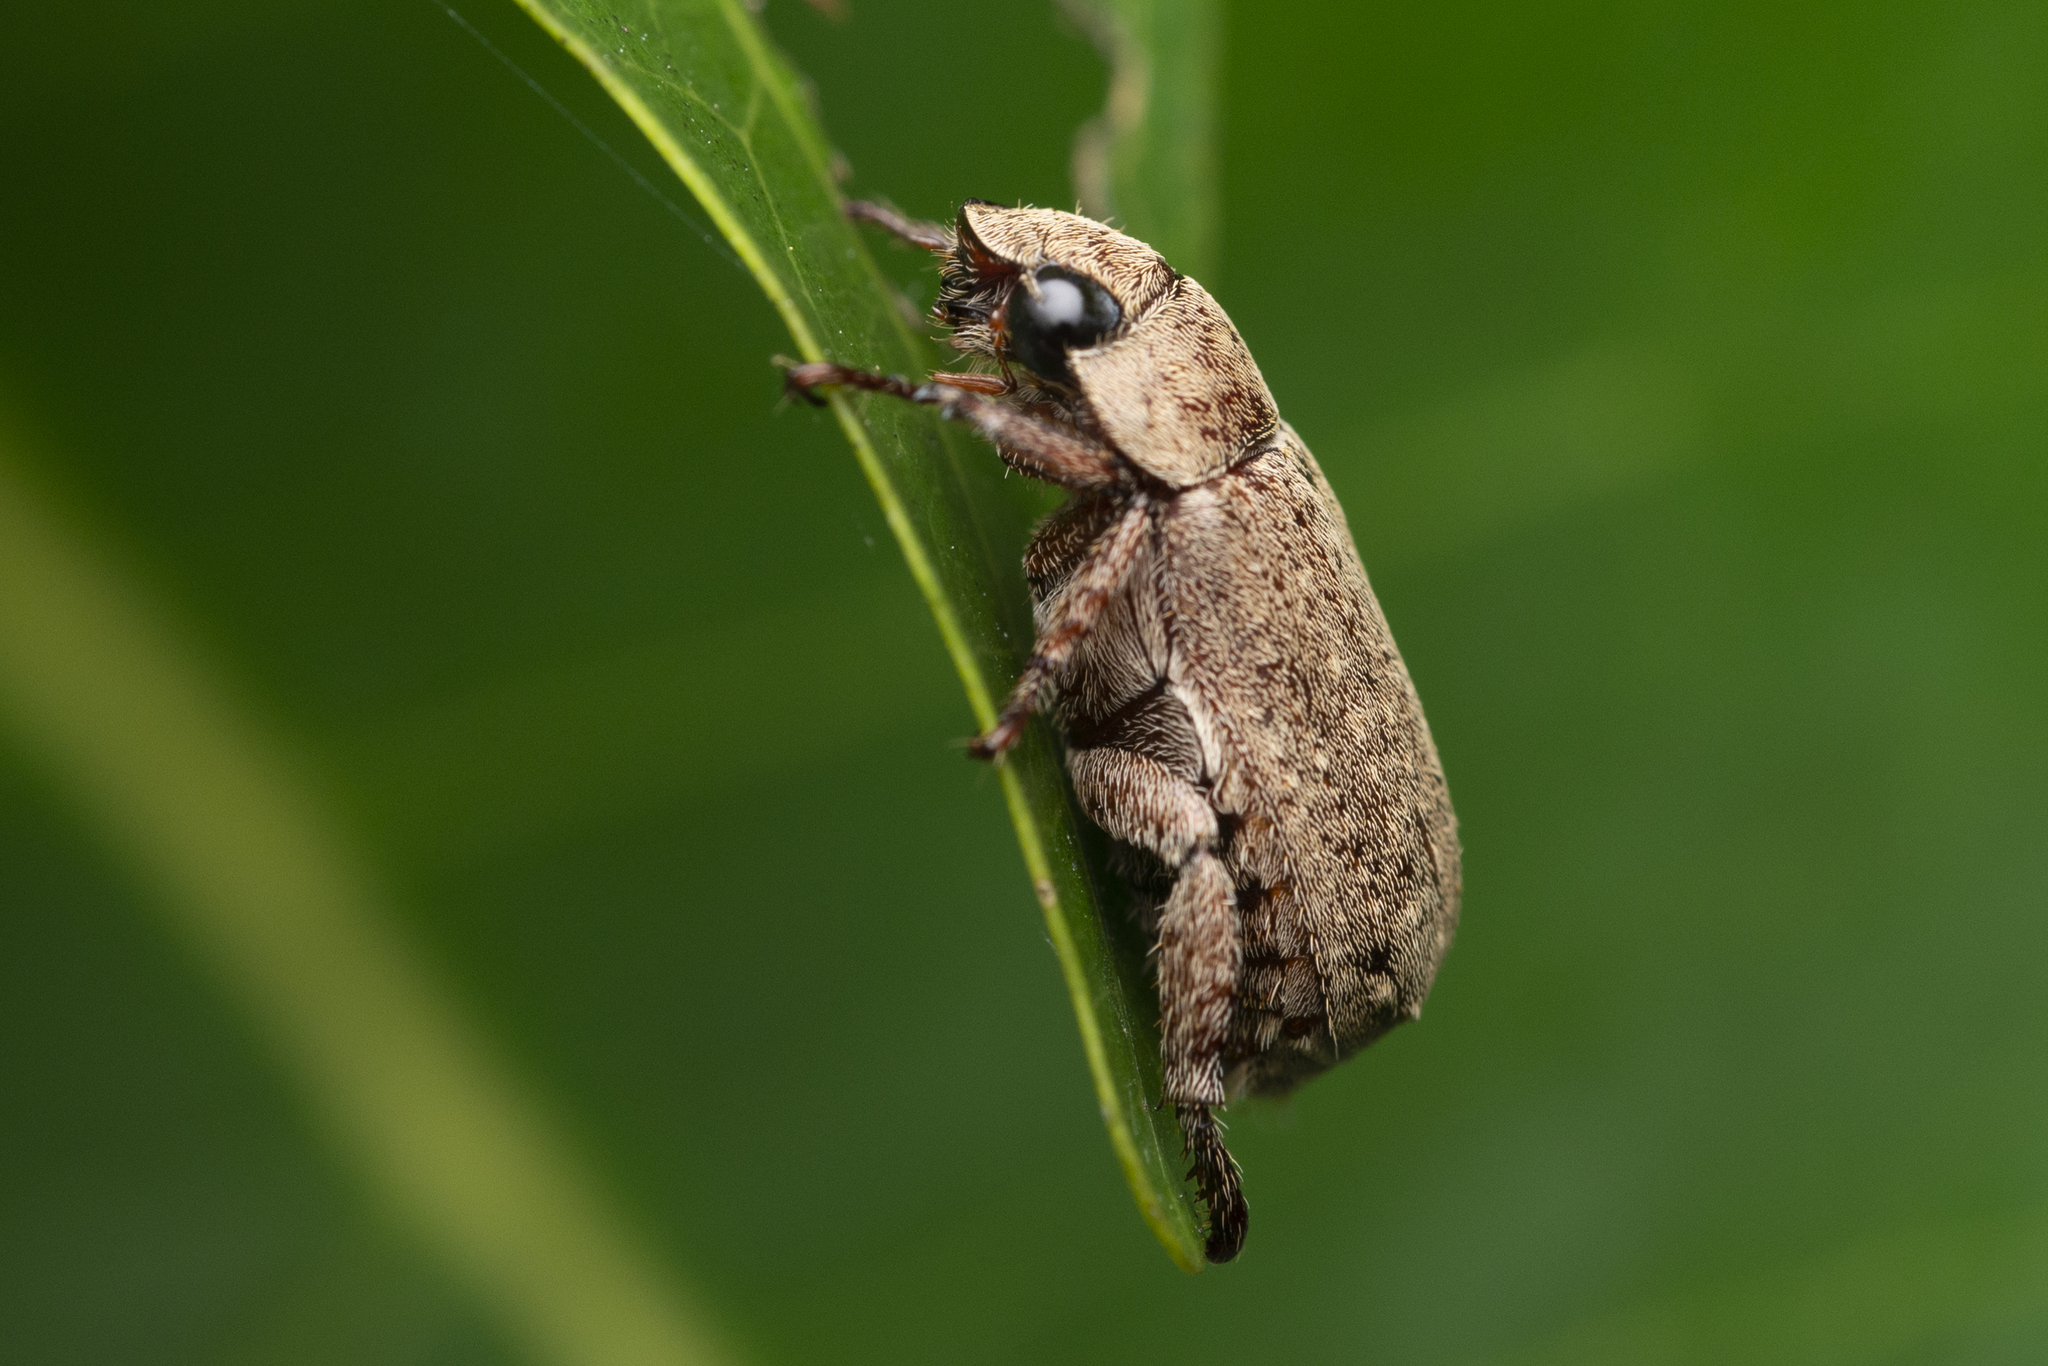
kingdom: Animalia
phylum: Arthropoda
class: Insecta
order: Coleoptera
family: Scarabaeidae
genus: Adoretus
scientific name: Adoretus sinicus
